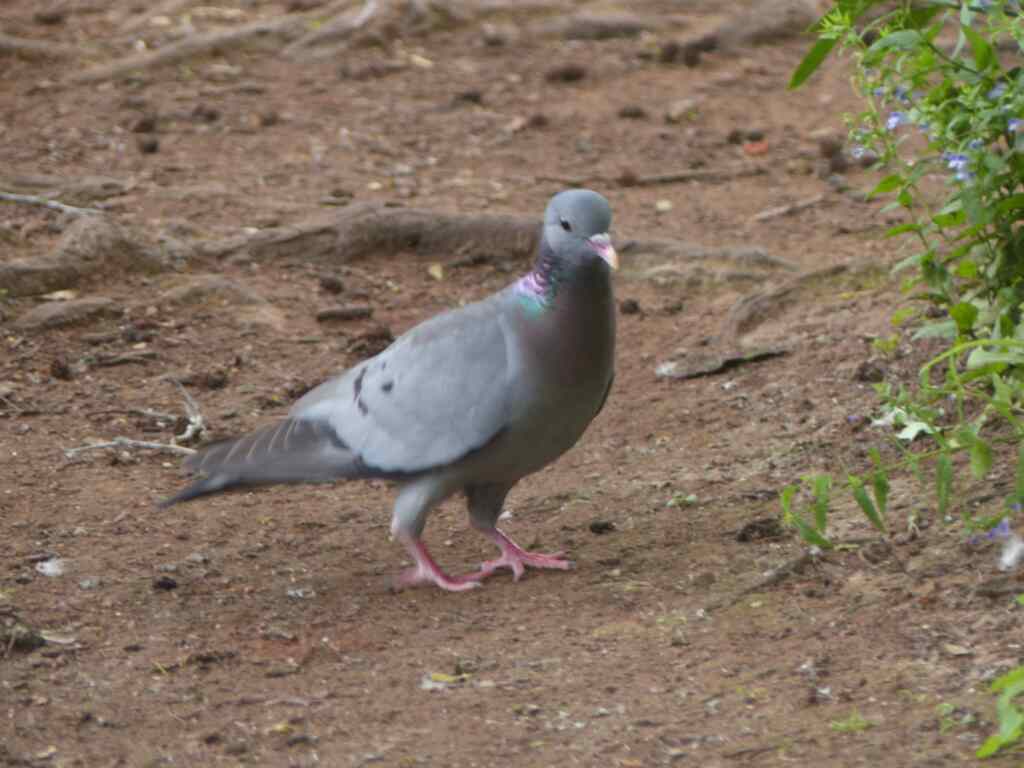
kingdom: Animalia
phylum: Chordata
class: Aves
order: Columbiformes
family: Columbidae
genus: Columba
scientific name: Columba oenas
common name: Stock dove
